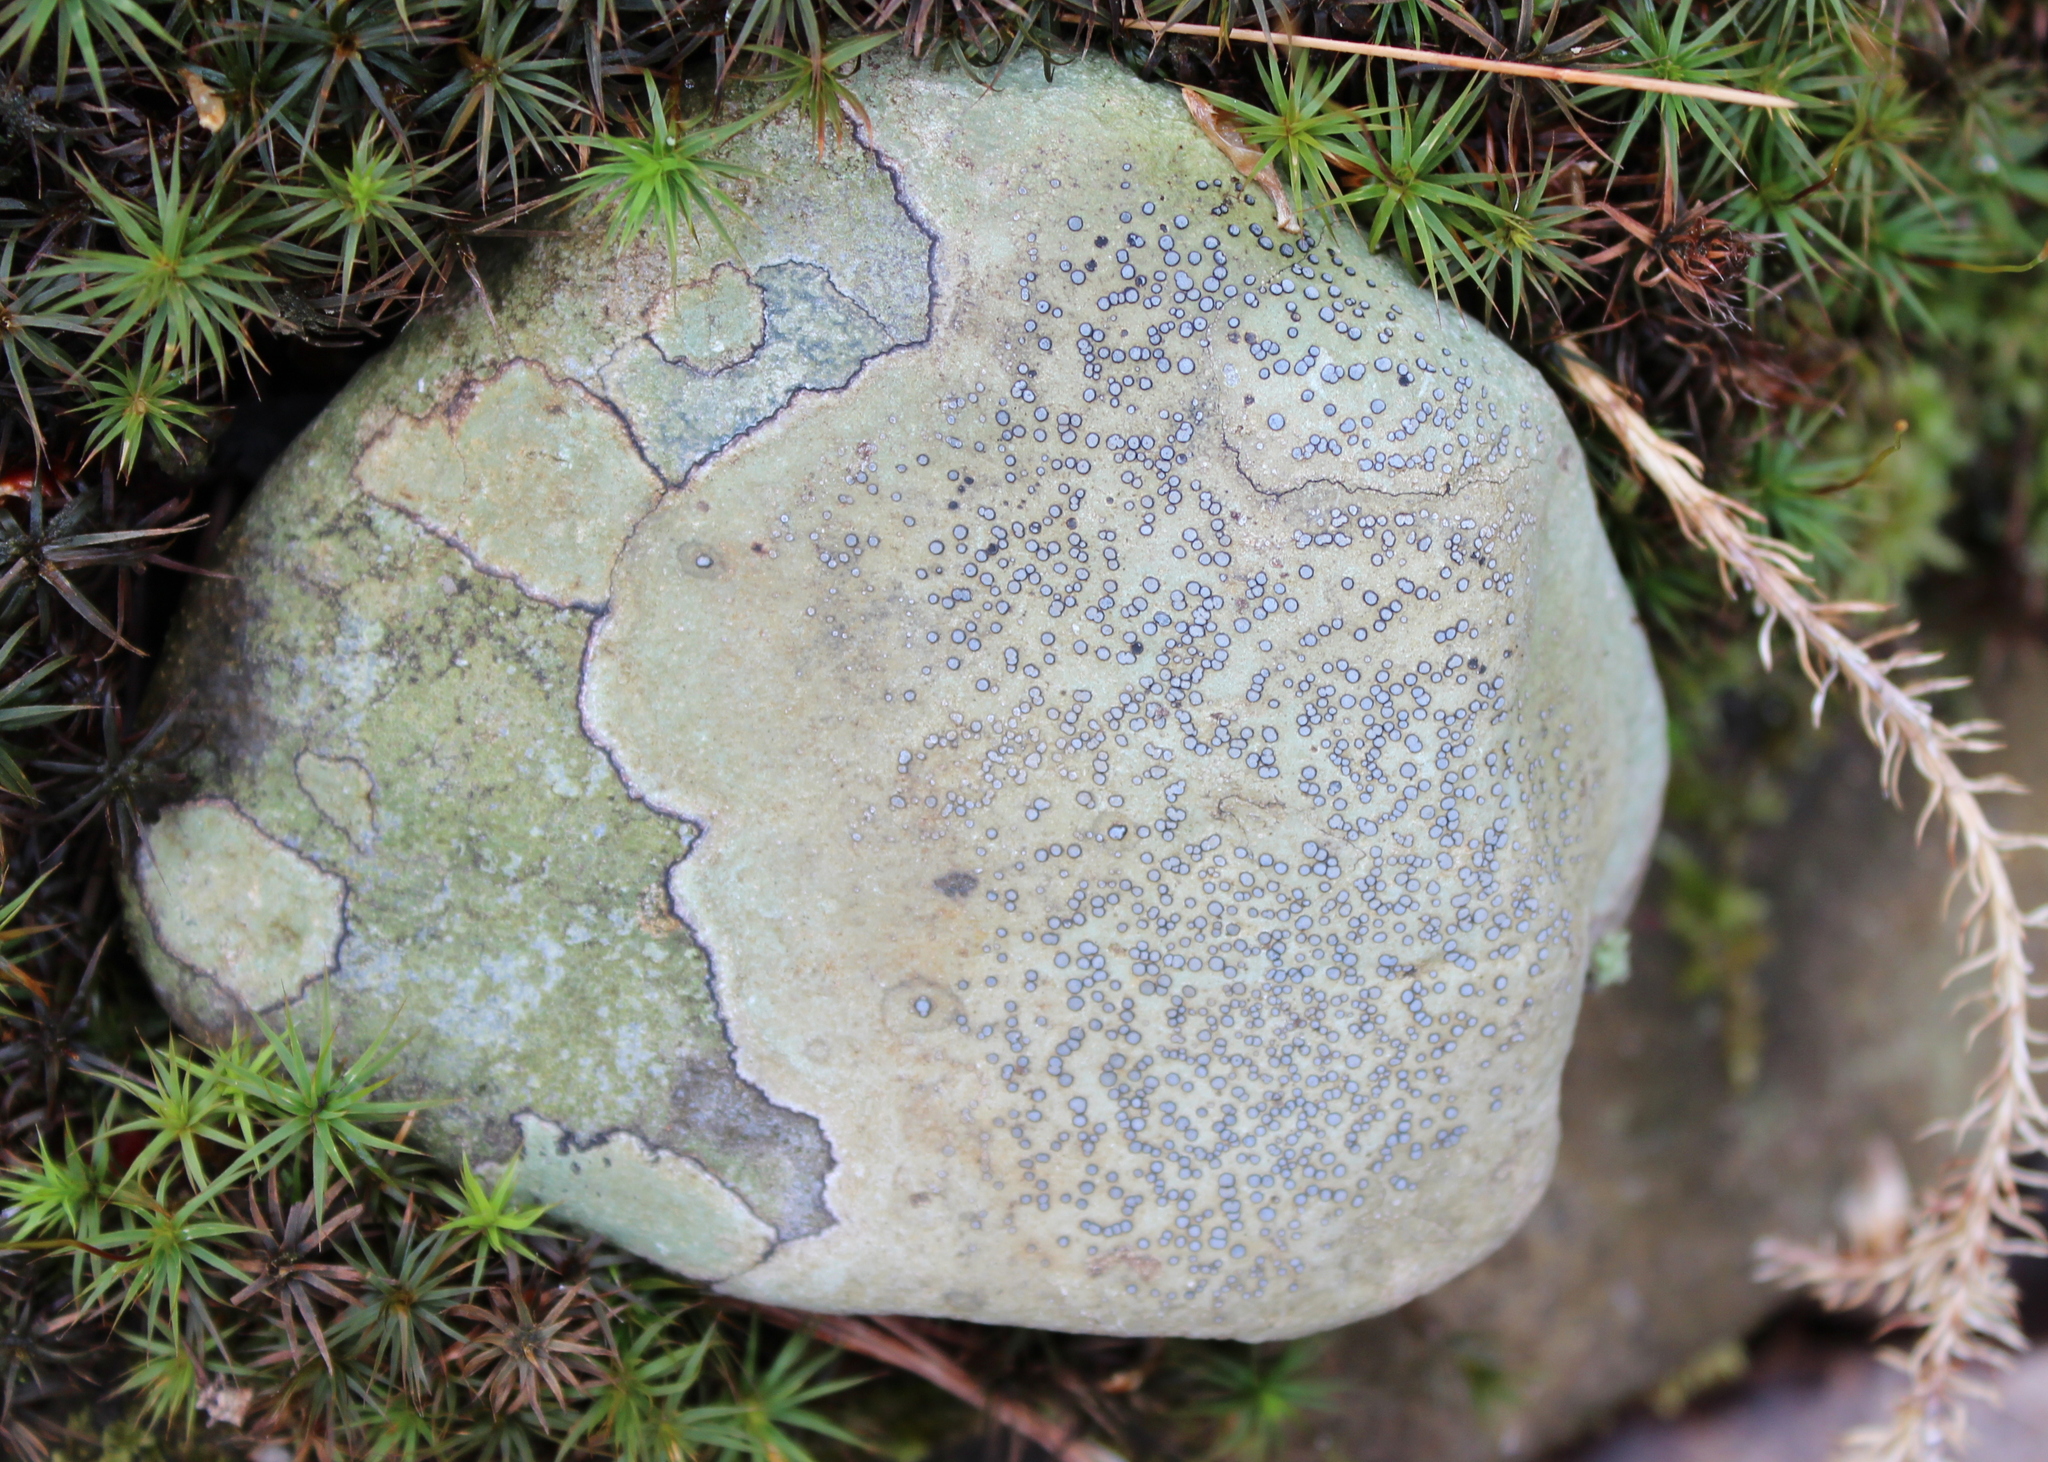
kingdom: Fungi
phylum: Ascomycota
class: Lecanoromycetes
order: Lecideales
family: Lecideaceae
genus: Porpidia
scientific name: Porpidia albocaerulescens
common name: Smokey-eyed boulder lichen
